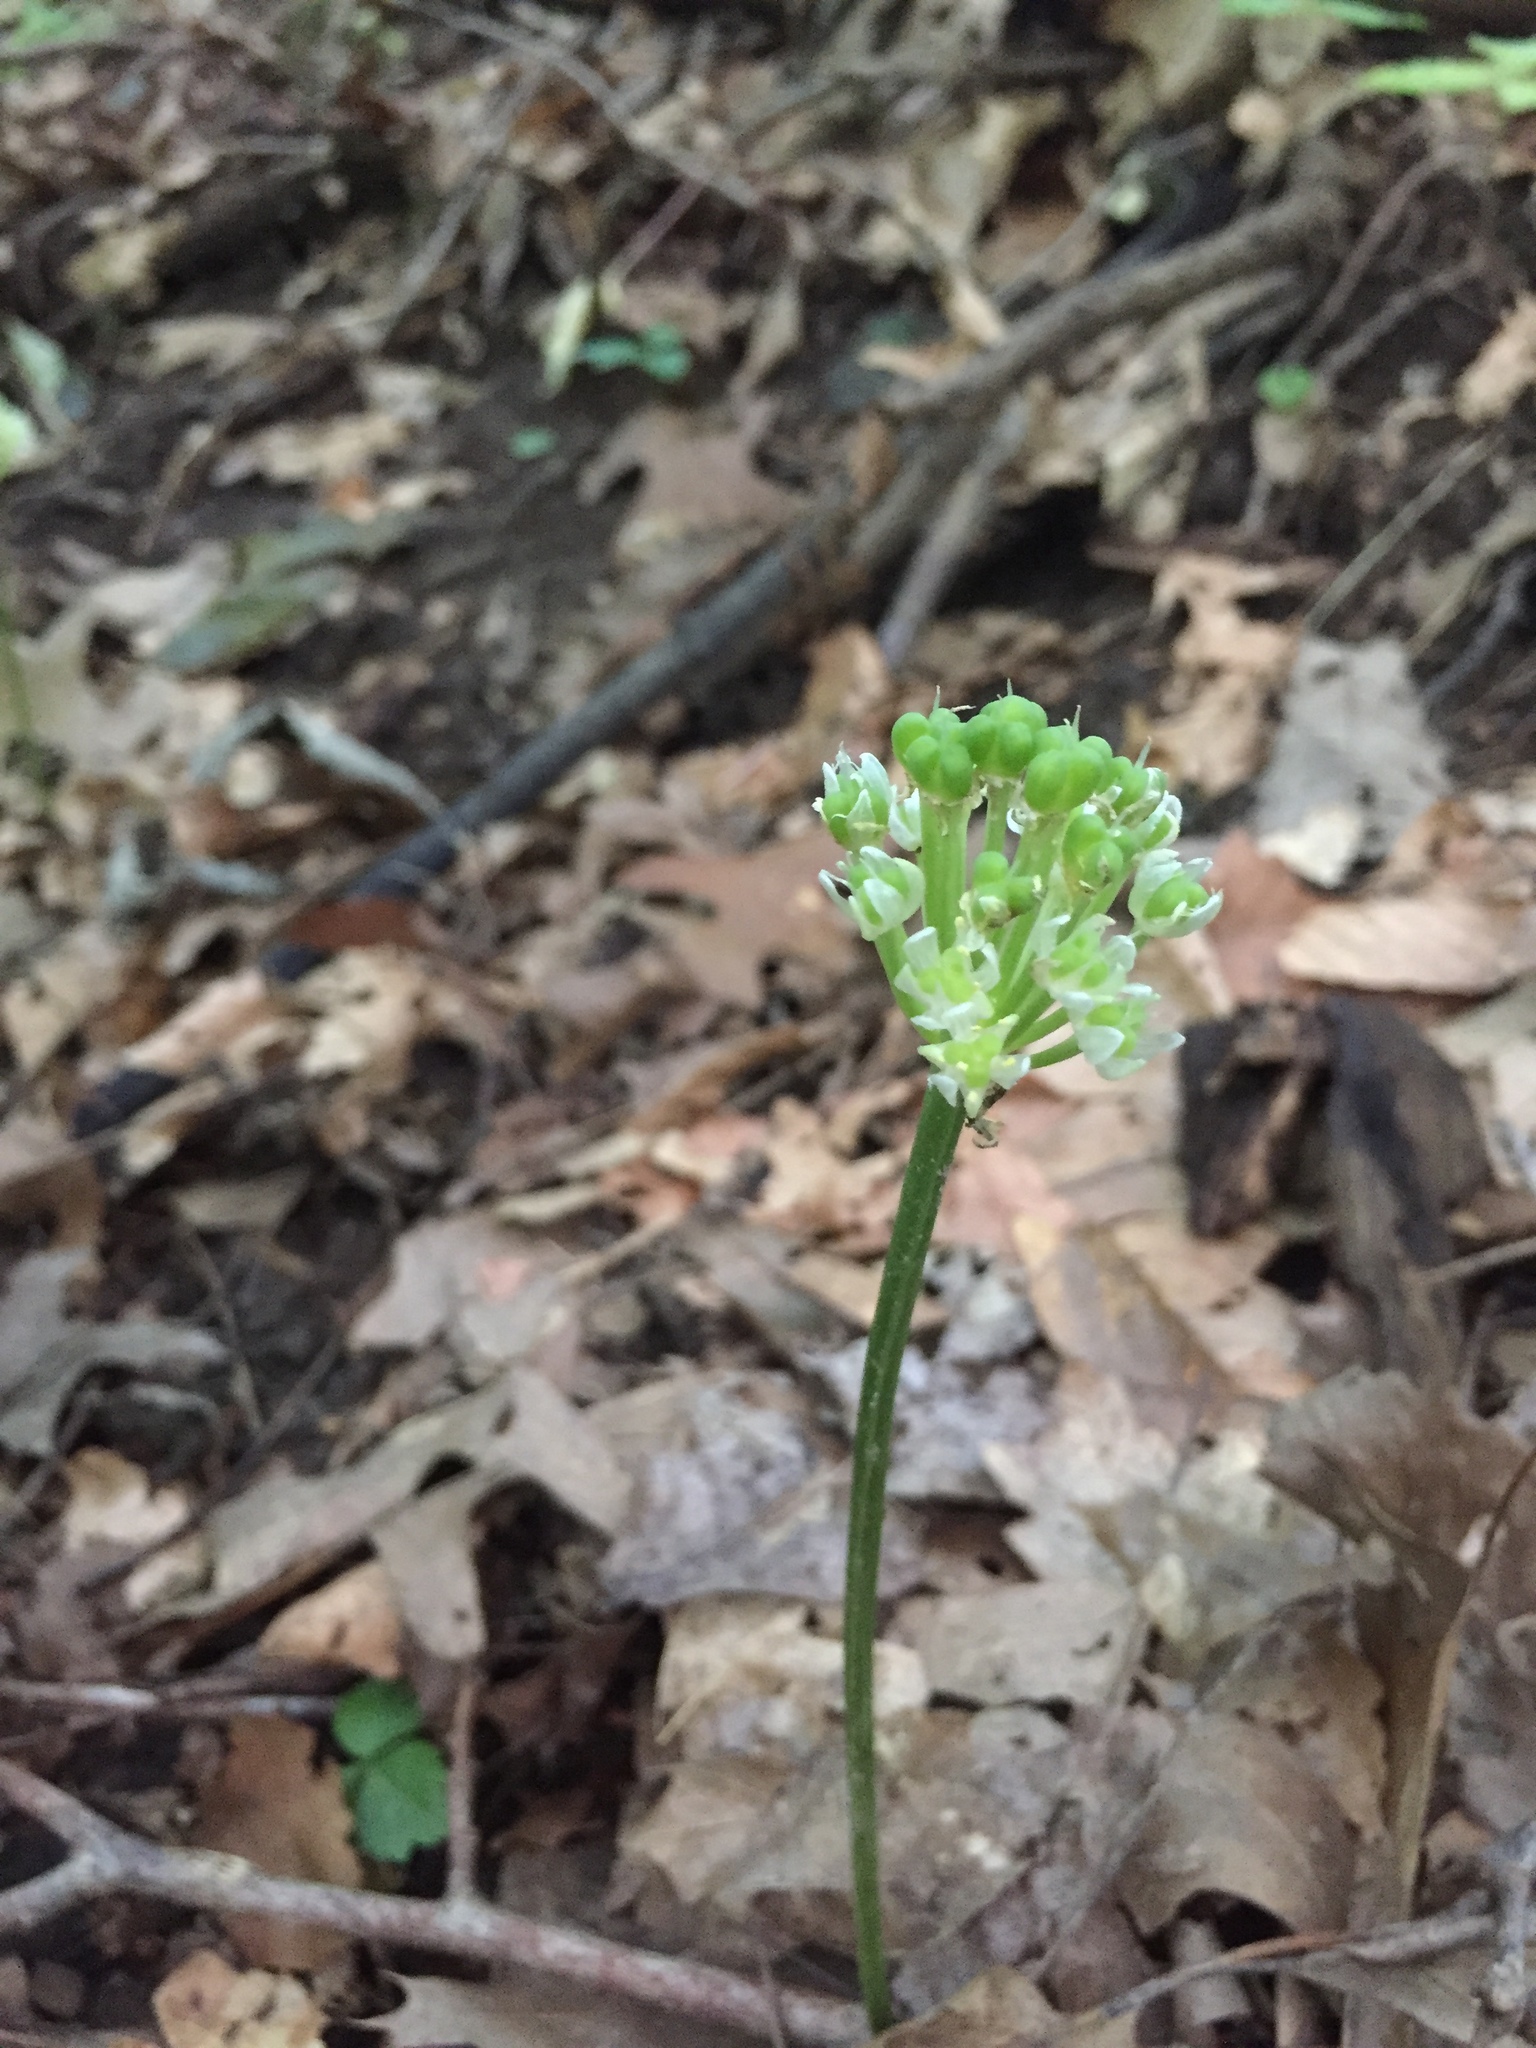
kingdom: Plantae
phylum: Tracheophyta
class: Liliopsida
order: Asparagales
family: Amaryllidaceae
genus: Allium
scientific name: Allium tricoccum
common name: Ramp
